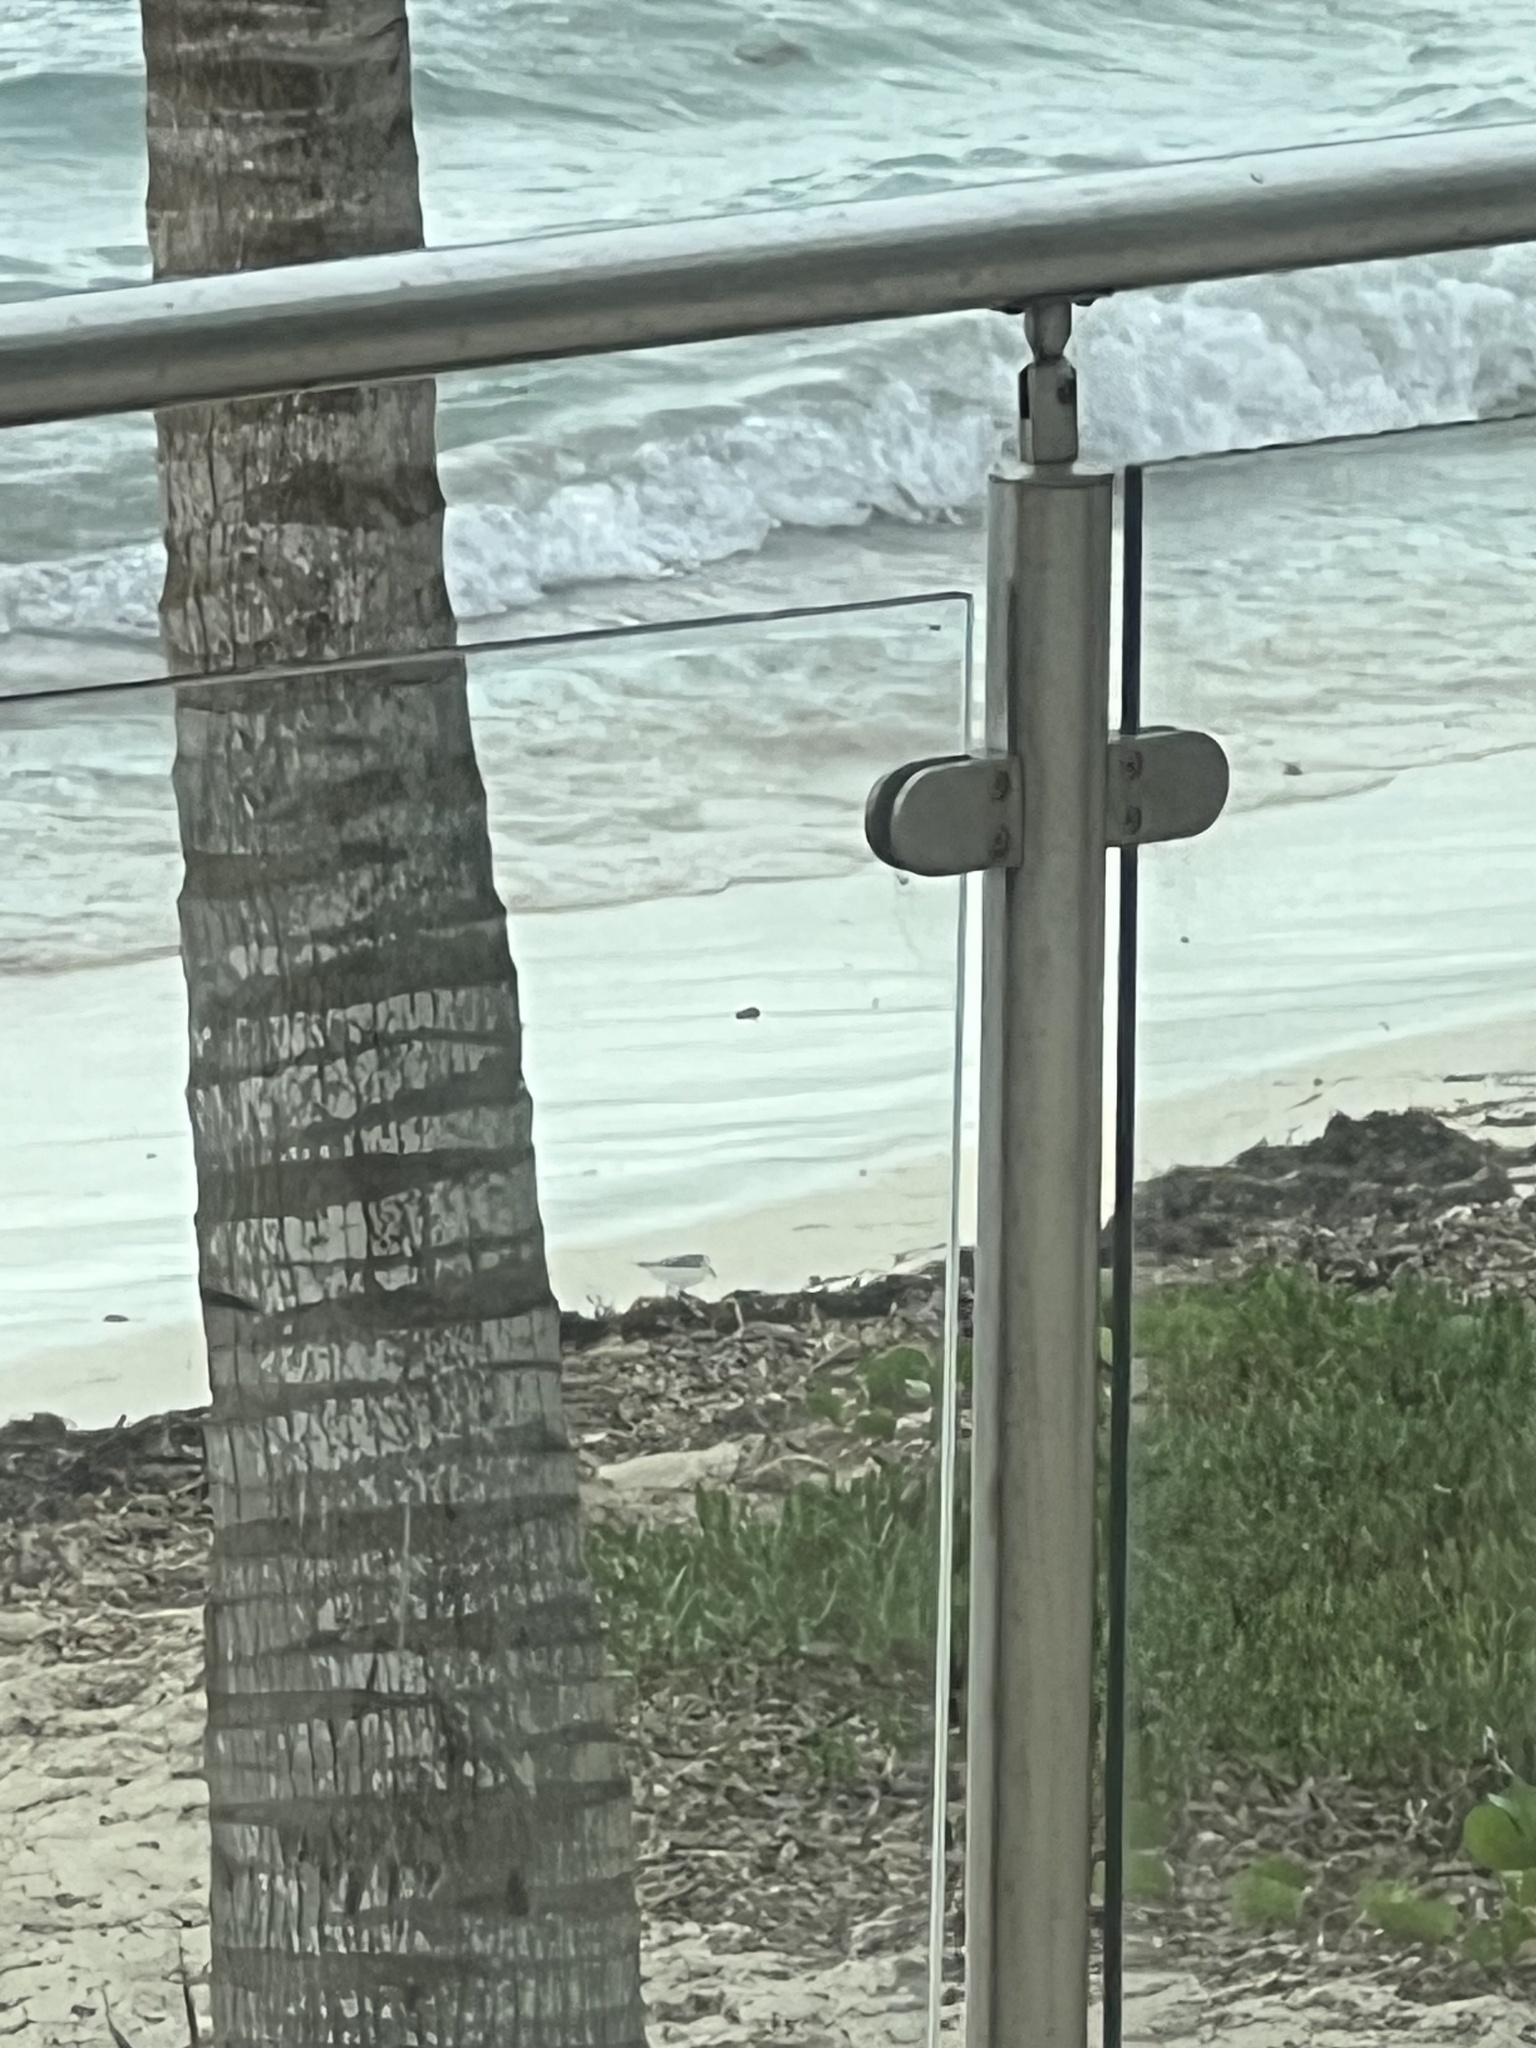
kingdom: Animalia
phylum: Chordata
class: Aves
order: Charadriiformes
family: Scolopacidae
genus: Calidris
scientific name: Calidris alba
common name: Sanderling
